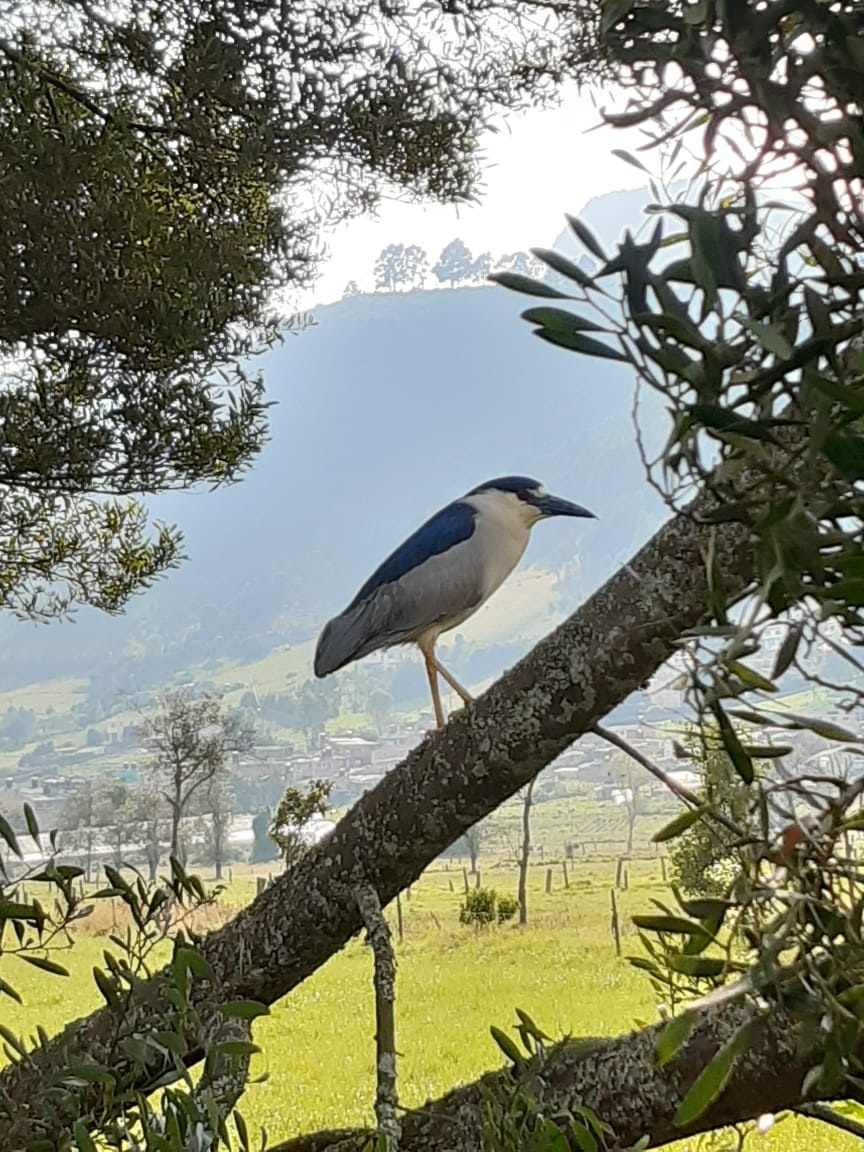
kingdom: Animalia
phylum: Chordata
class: Aves
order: Pelecaniformes
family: Ardeidae
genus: Nycticorax
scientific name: Nycticorax nycticorax
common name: Black-crowned night heron
